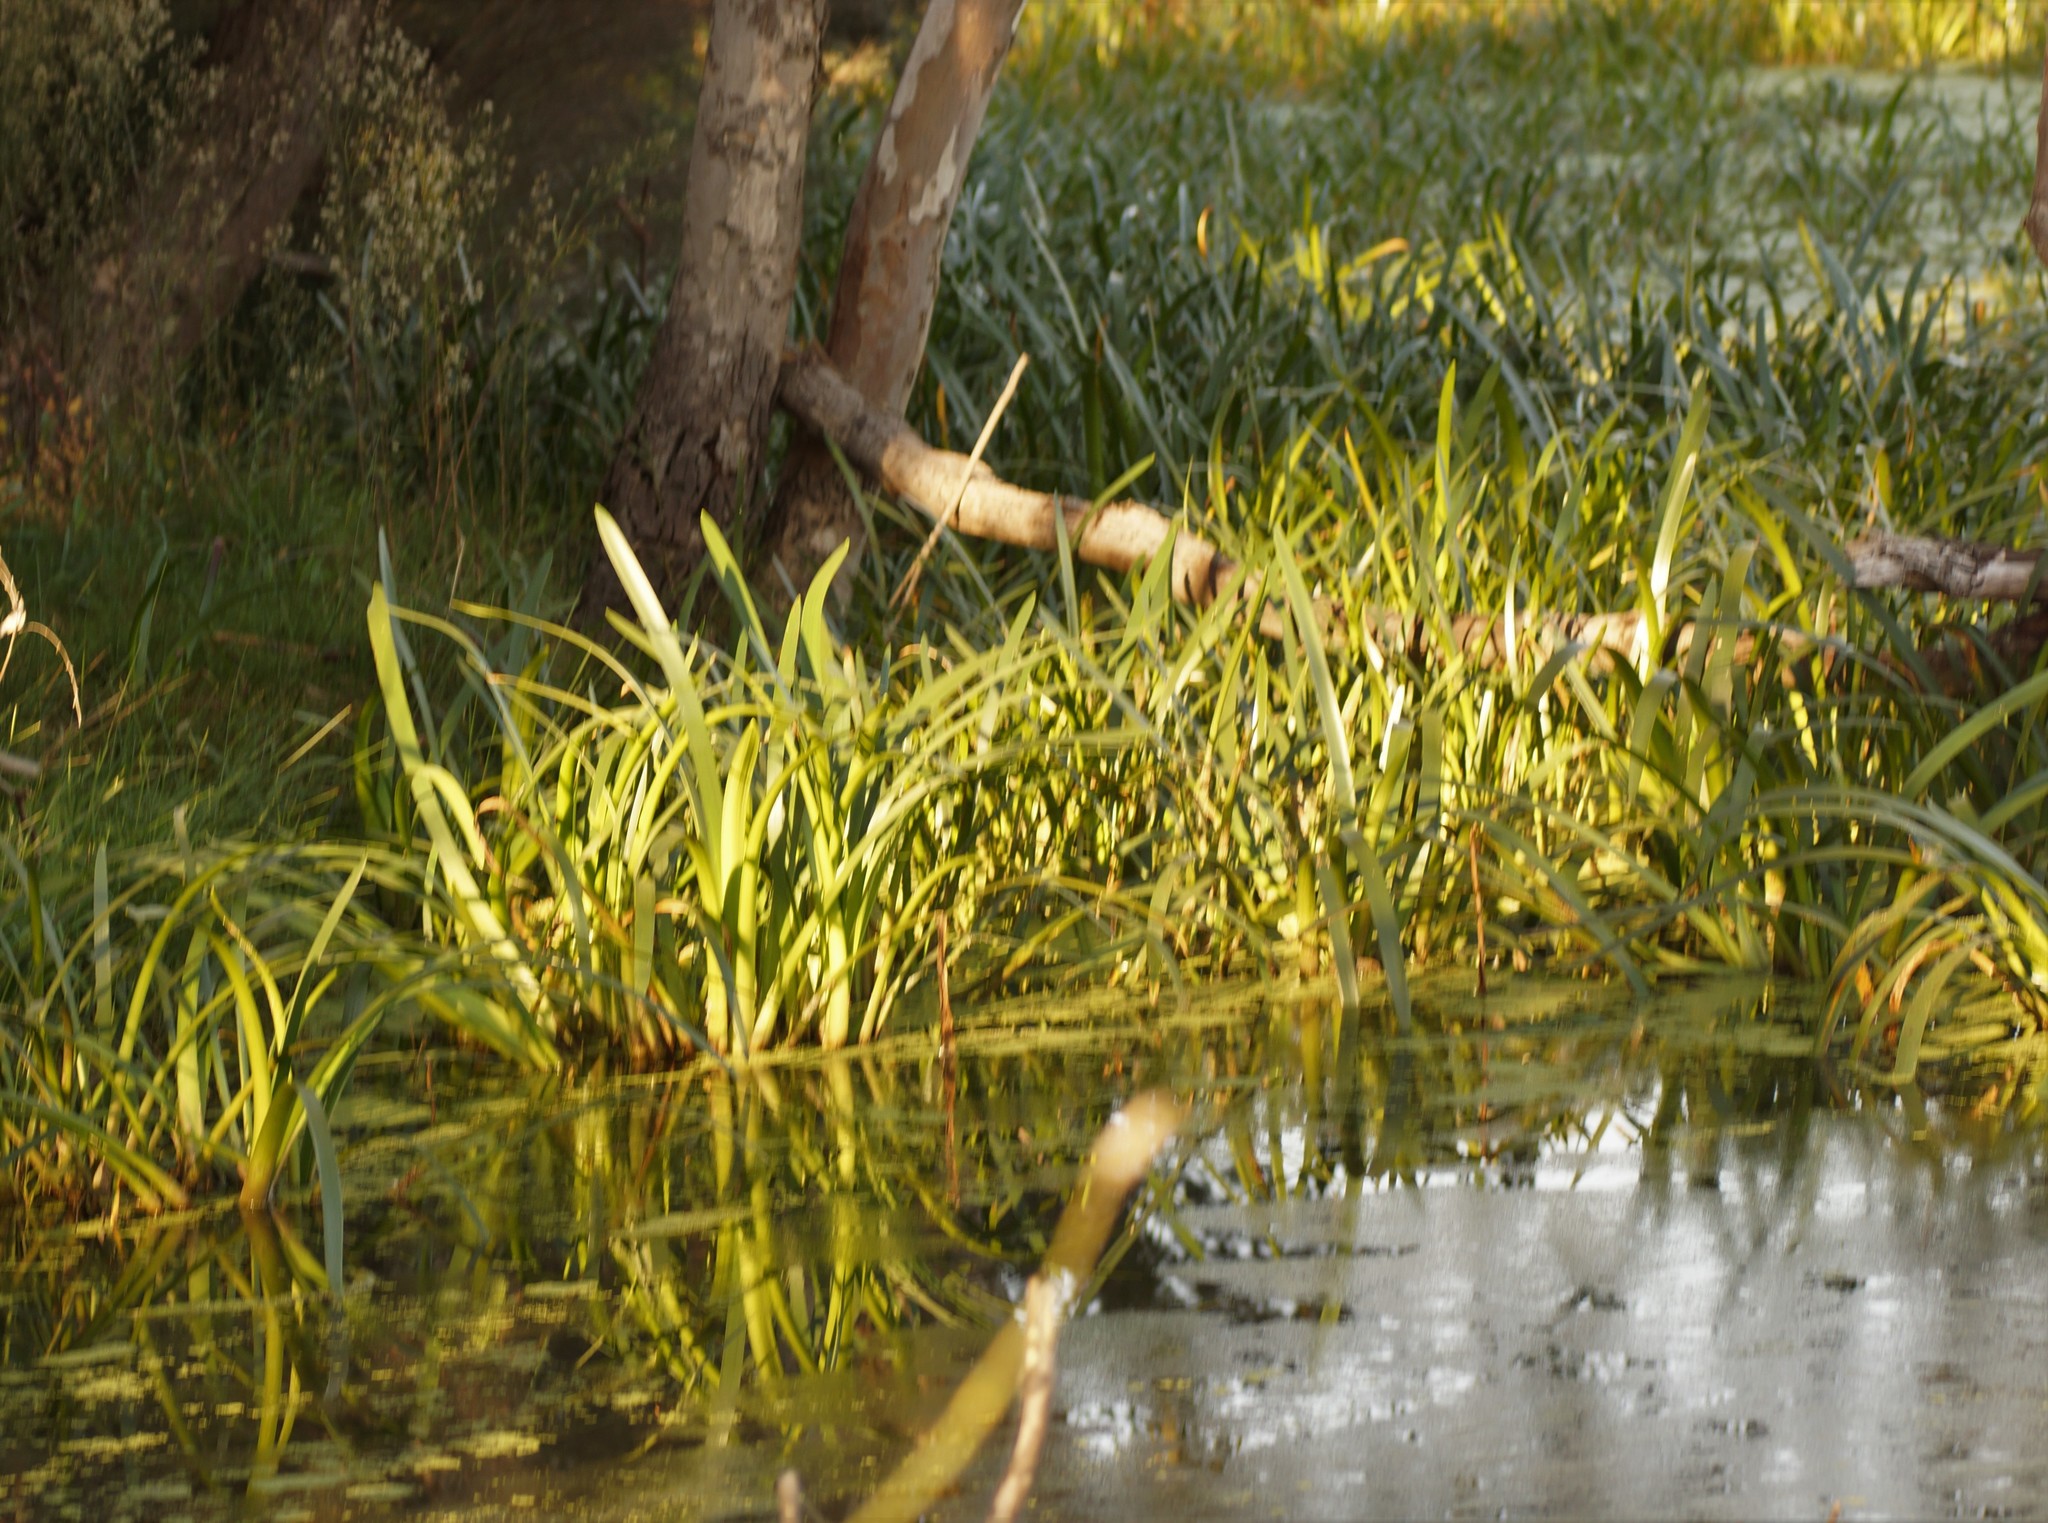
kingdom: Plantae
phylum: Tracheophyta
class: Liliopsida
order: Alismatales
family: Juncaginaceae
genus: Cycnogeton
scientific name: Cycnogeton procerum
